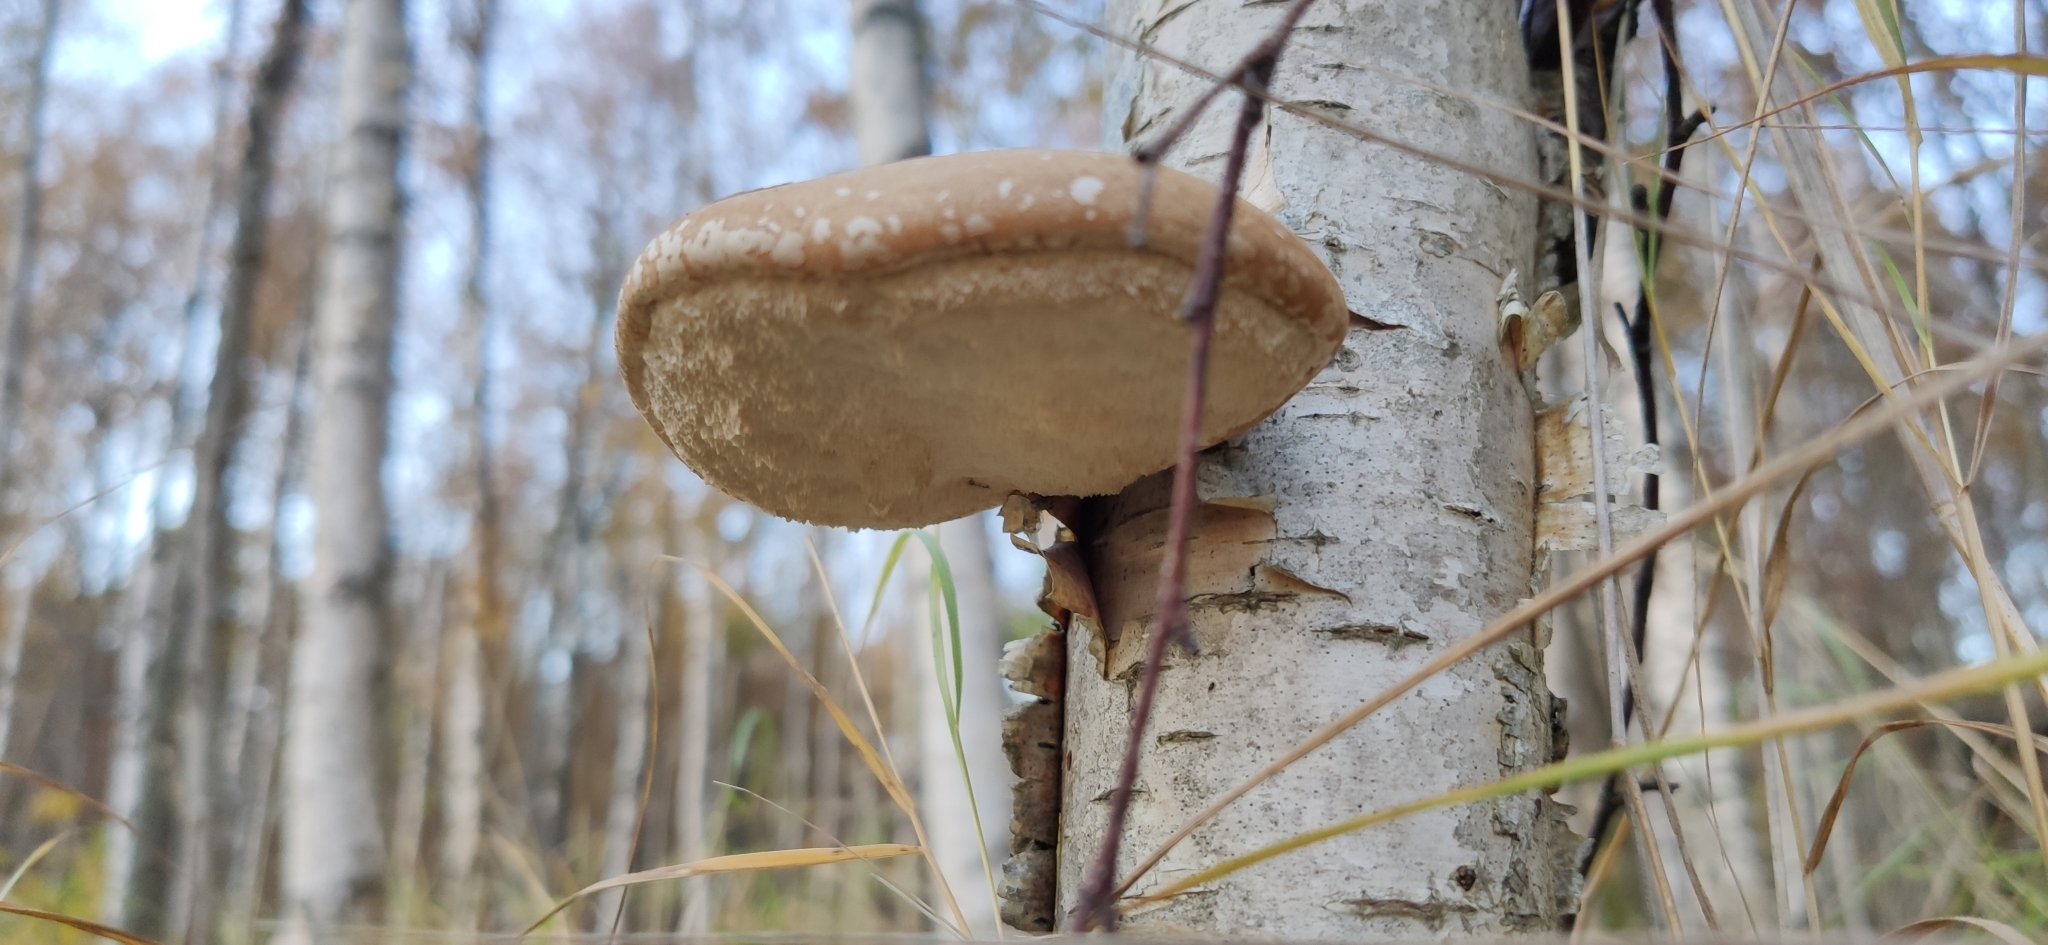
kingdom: Fungi
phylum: Basidiomycota
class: Agaricomycetes
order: Polyporales
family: Fomitopsidaceae
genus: Fomitopsis
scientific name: Fomitopsis betulina
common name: Birch polypore
